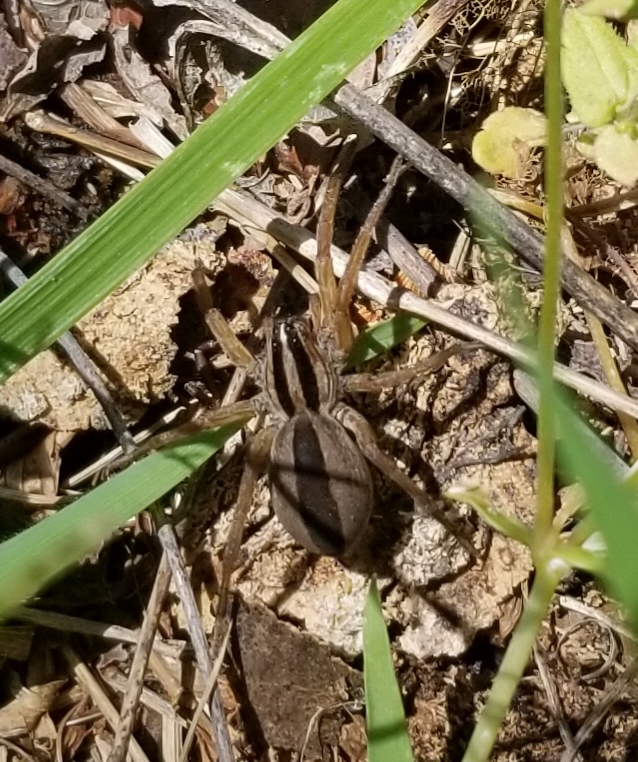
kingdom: Animalia
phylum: Arthropoda
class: Arachnida
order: Araneae
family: Lycosidae
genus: Rabidosa
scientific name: Rabidosa punctulata
